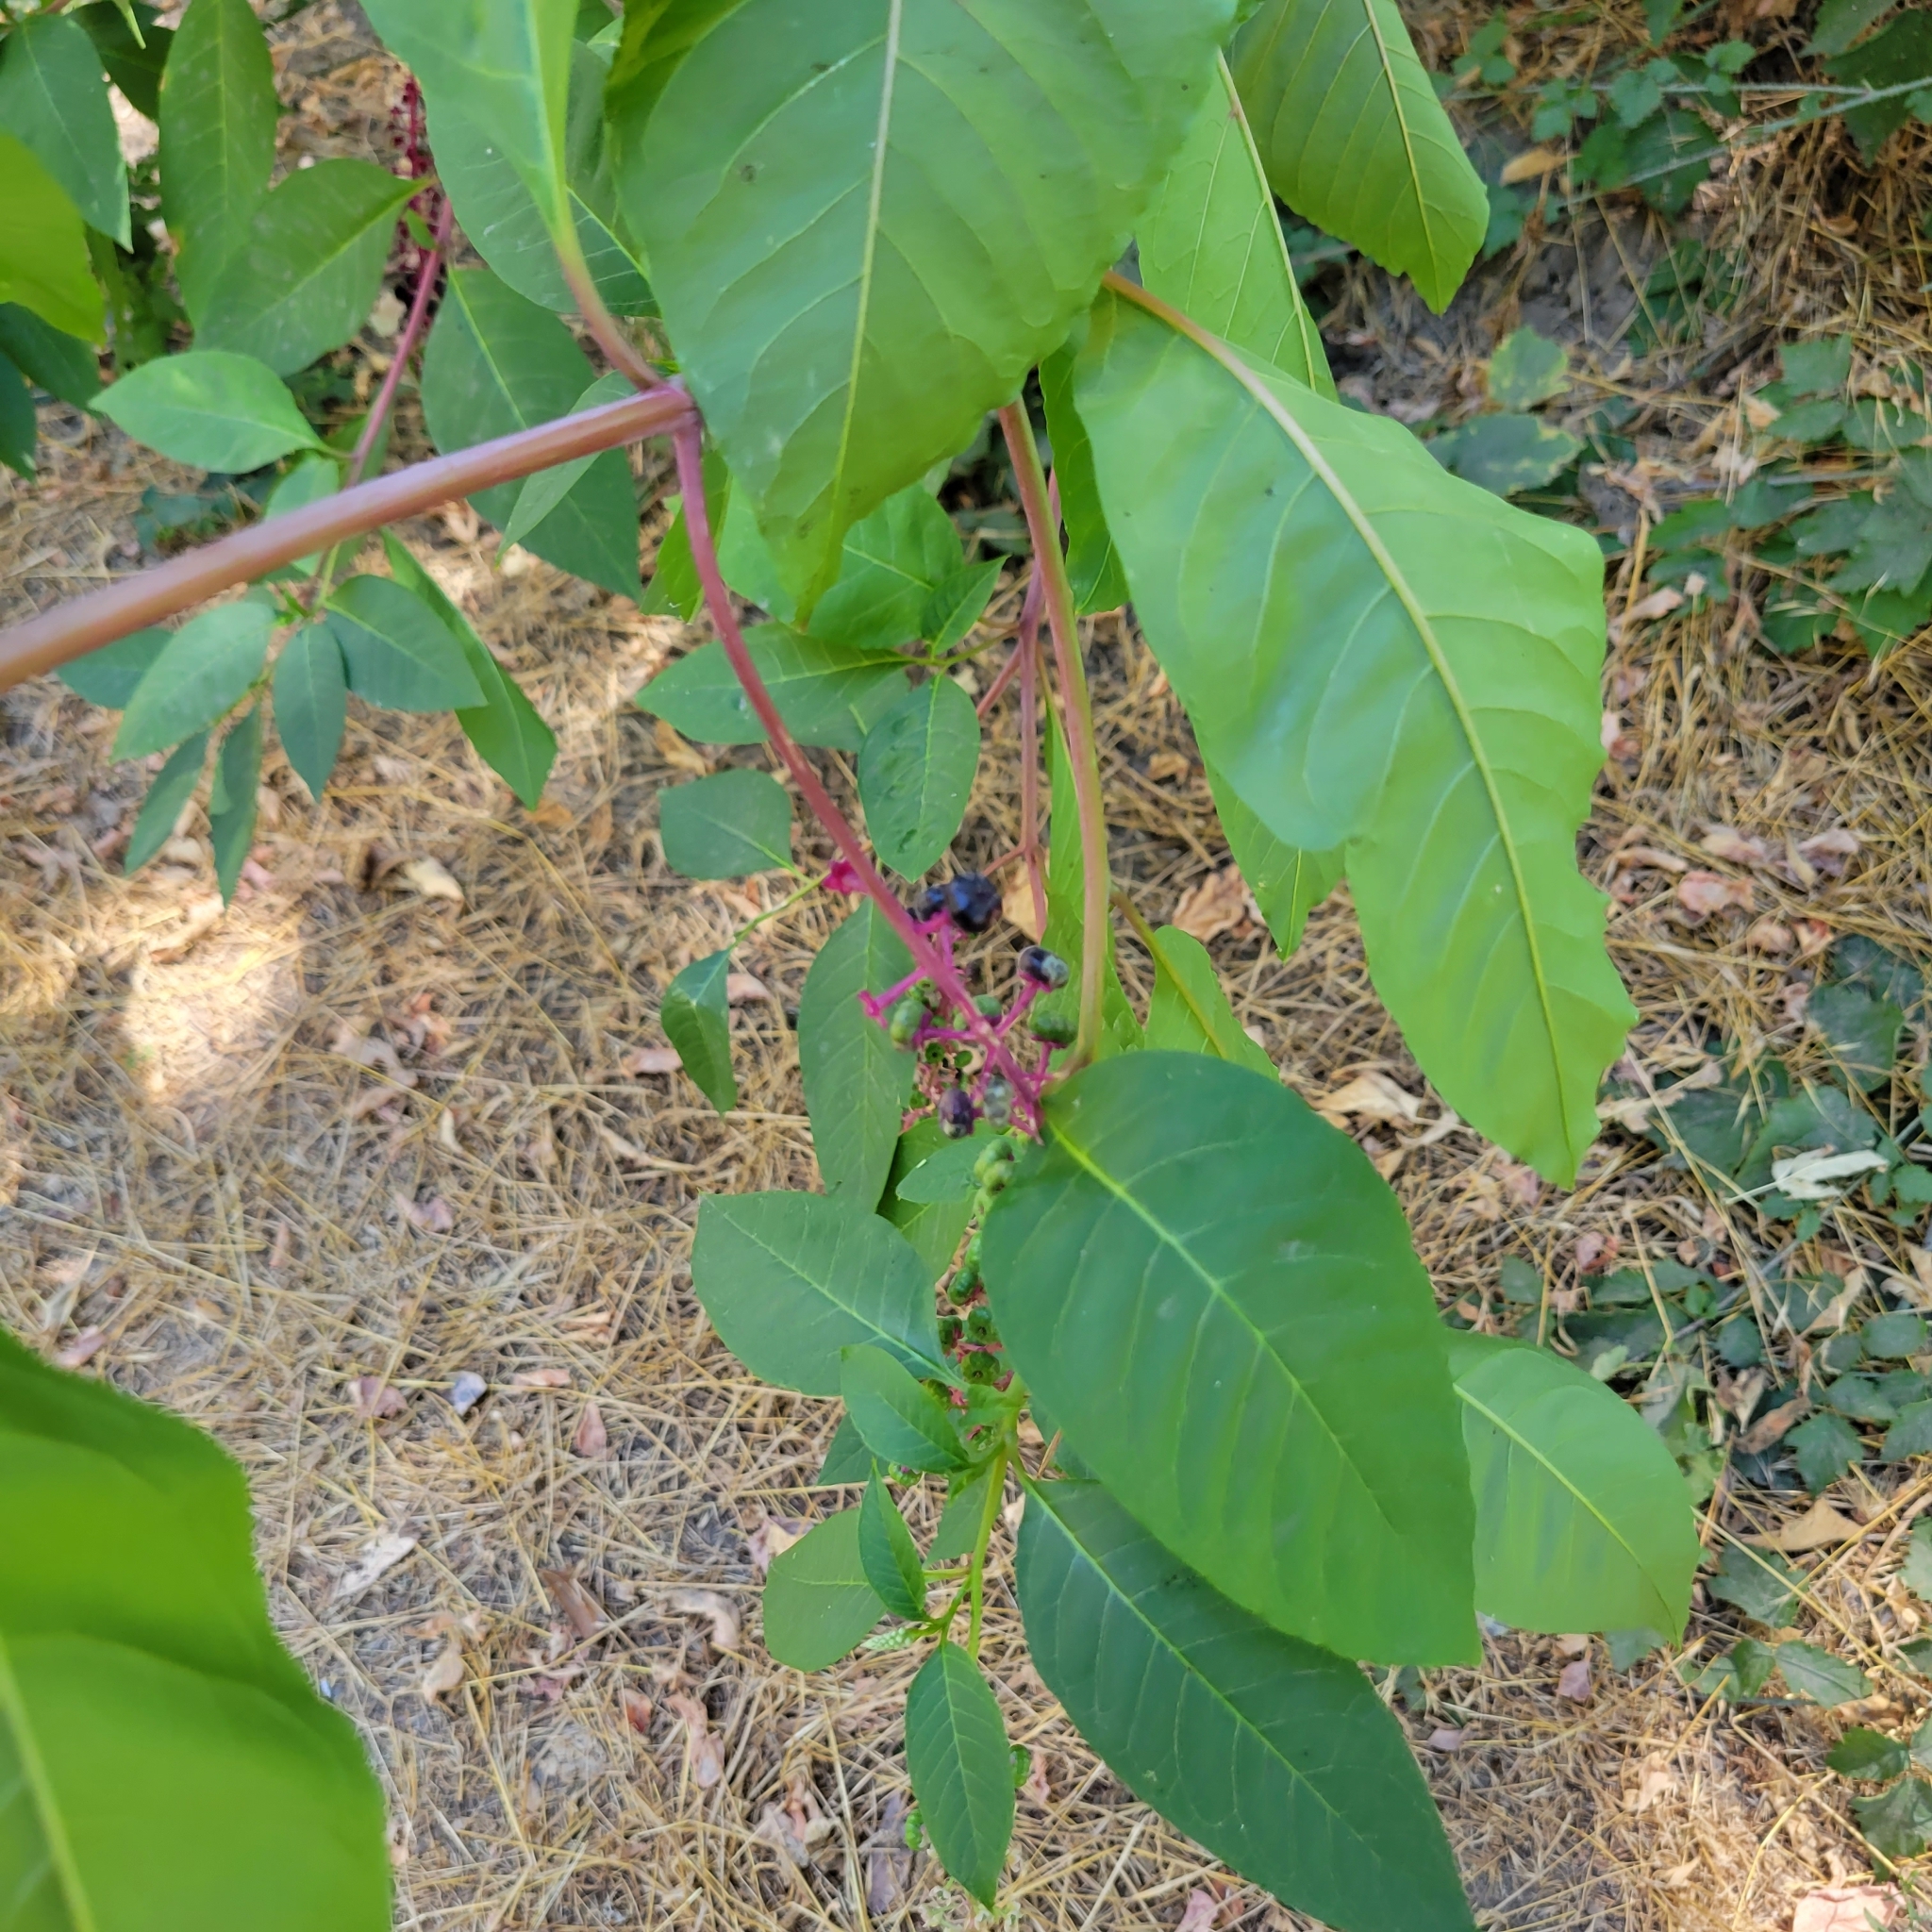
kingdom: Plantae
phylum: Tracheophyta
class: Magnoliopsida
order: Caryophyllales
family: Phytolaccaceae
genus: Phytolacca
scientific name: Phytolacca americana
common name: American pokeweed
